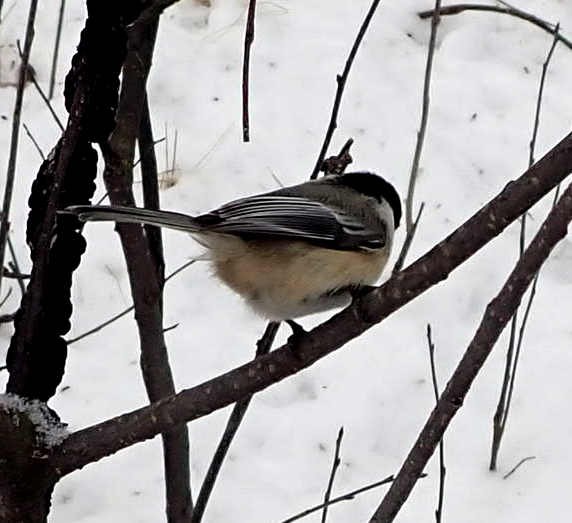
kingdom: Animalia
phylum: Chordata
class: Aves
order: Passeriformes
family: Paridae
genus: Poecile
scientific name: Poecile atricapillus
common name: Black-capped chickadee
